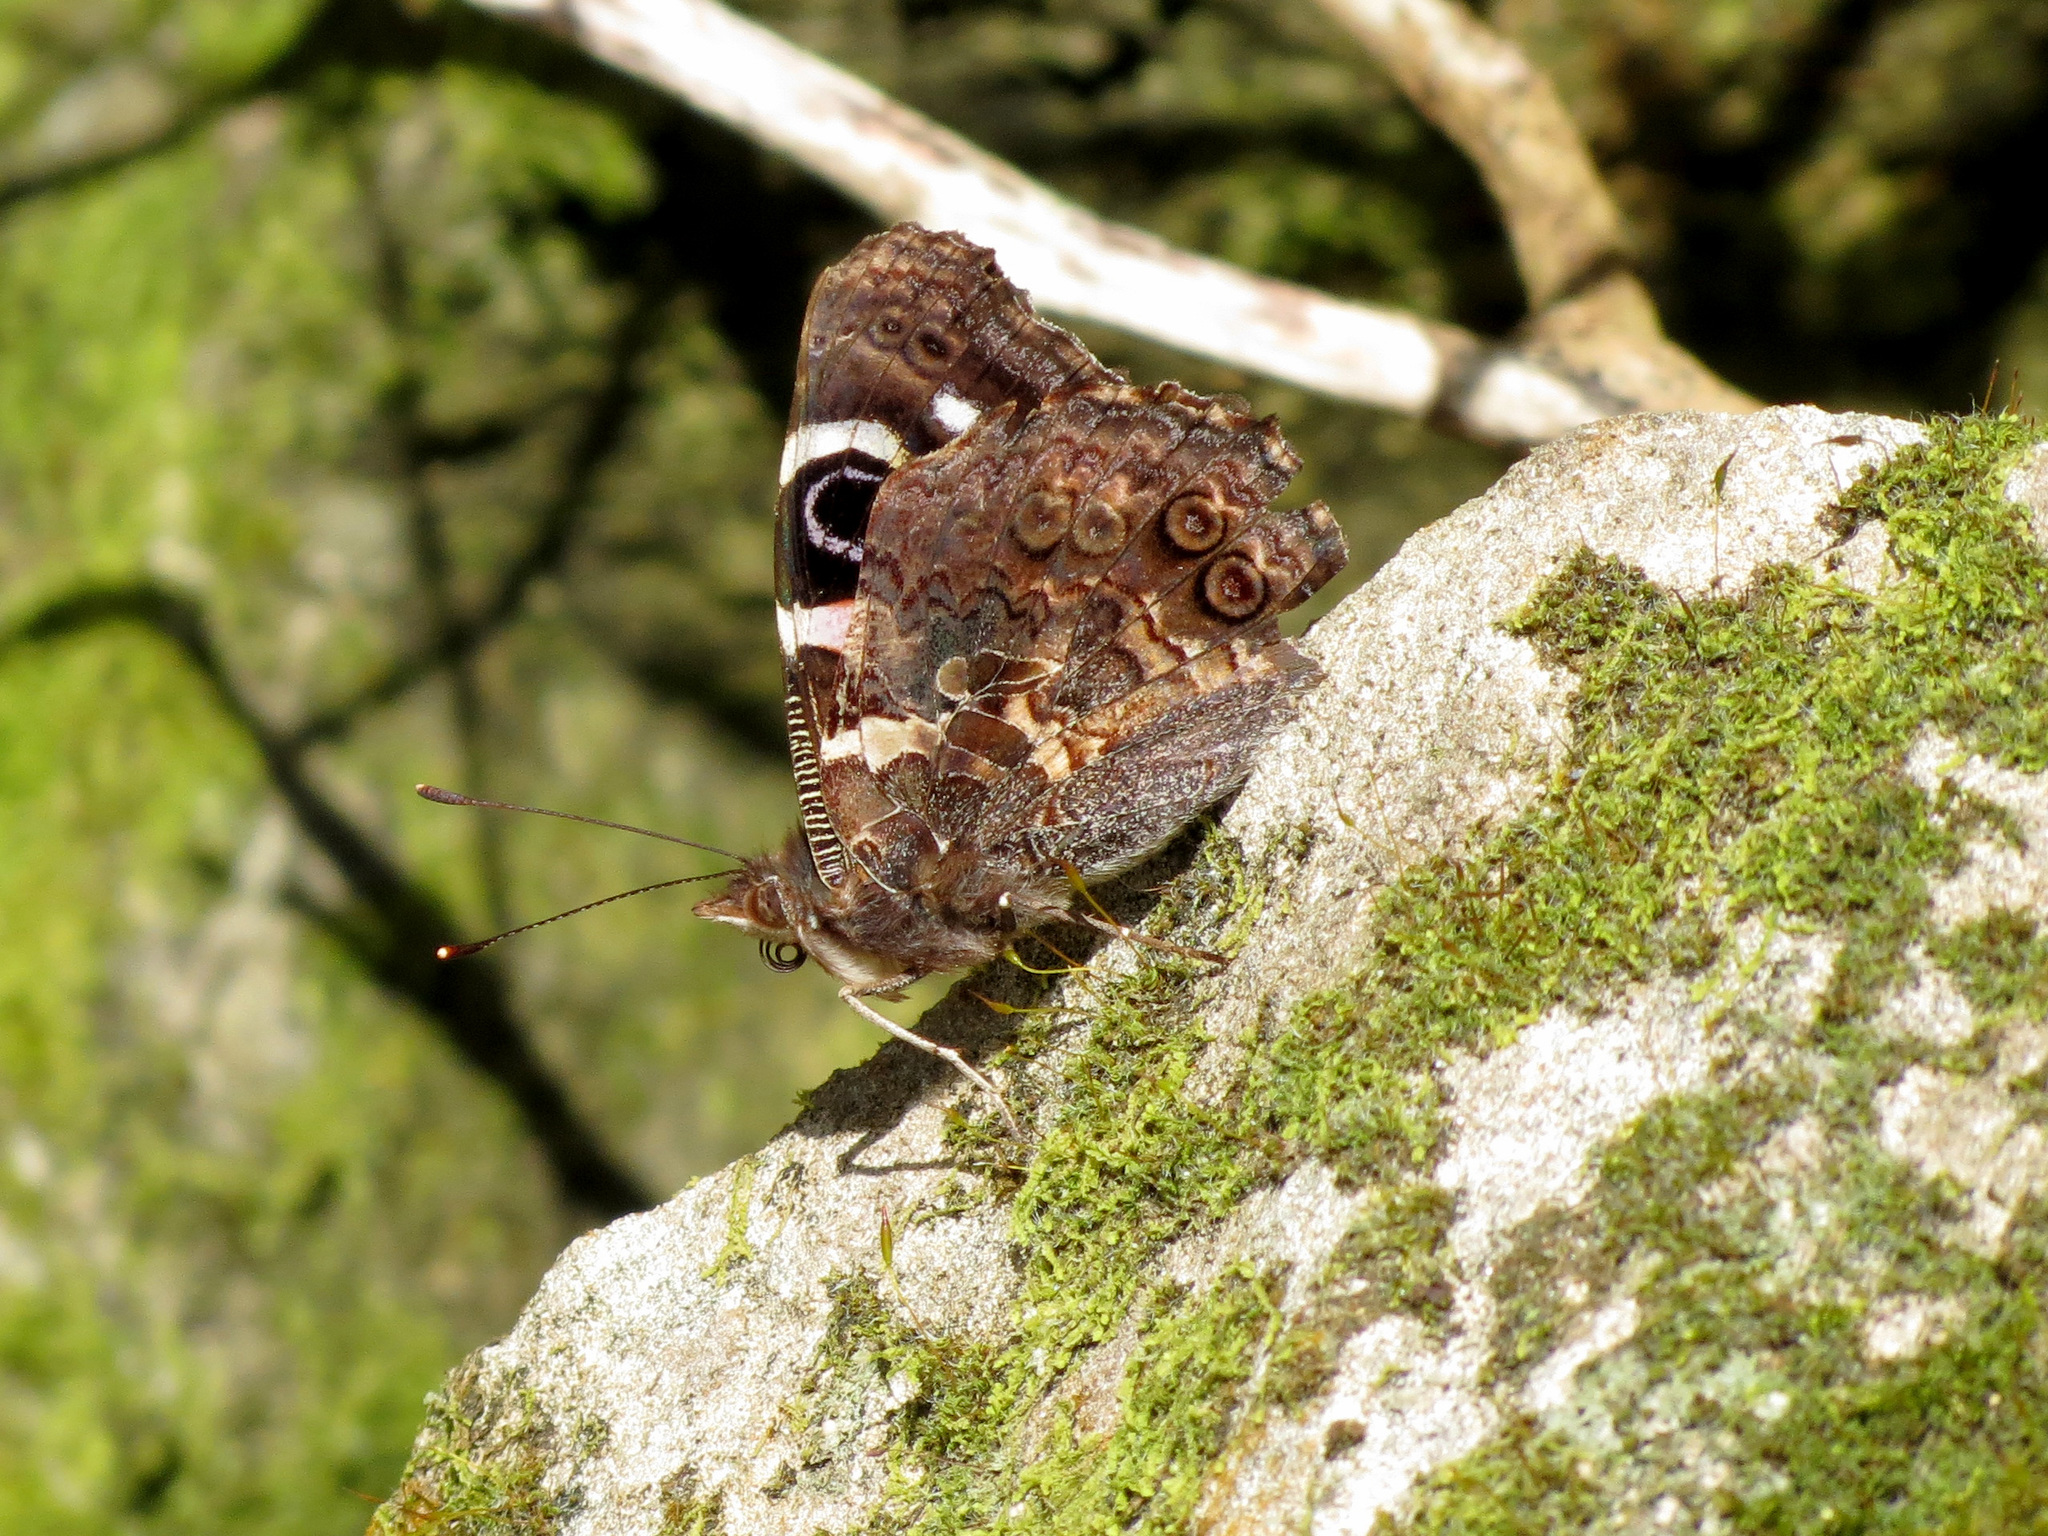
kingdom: Animalia
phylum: Arthropoda
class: Insecta
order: Lepidoptera
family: Nymphalidae
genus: Vanessa
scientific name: Vanessa gonerilla
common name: New zealand red admiral
